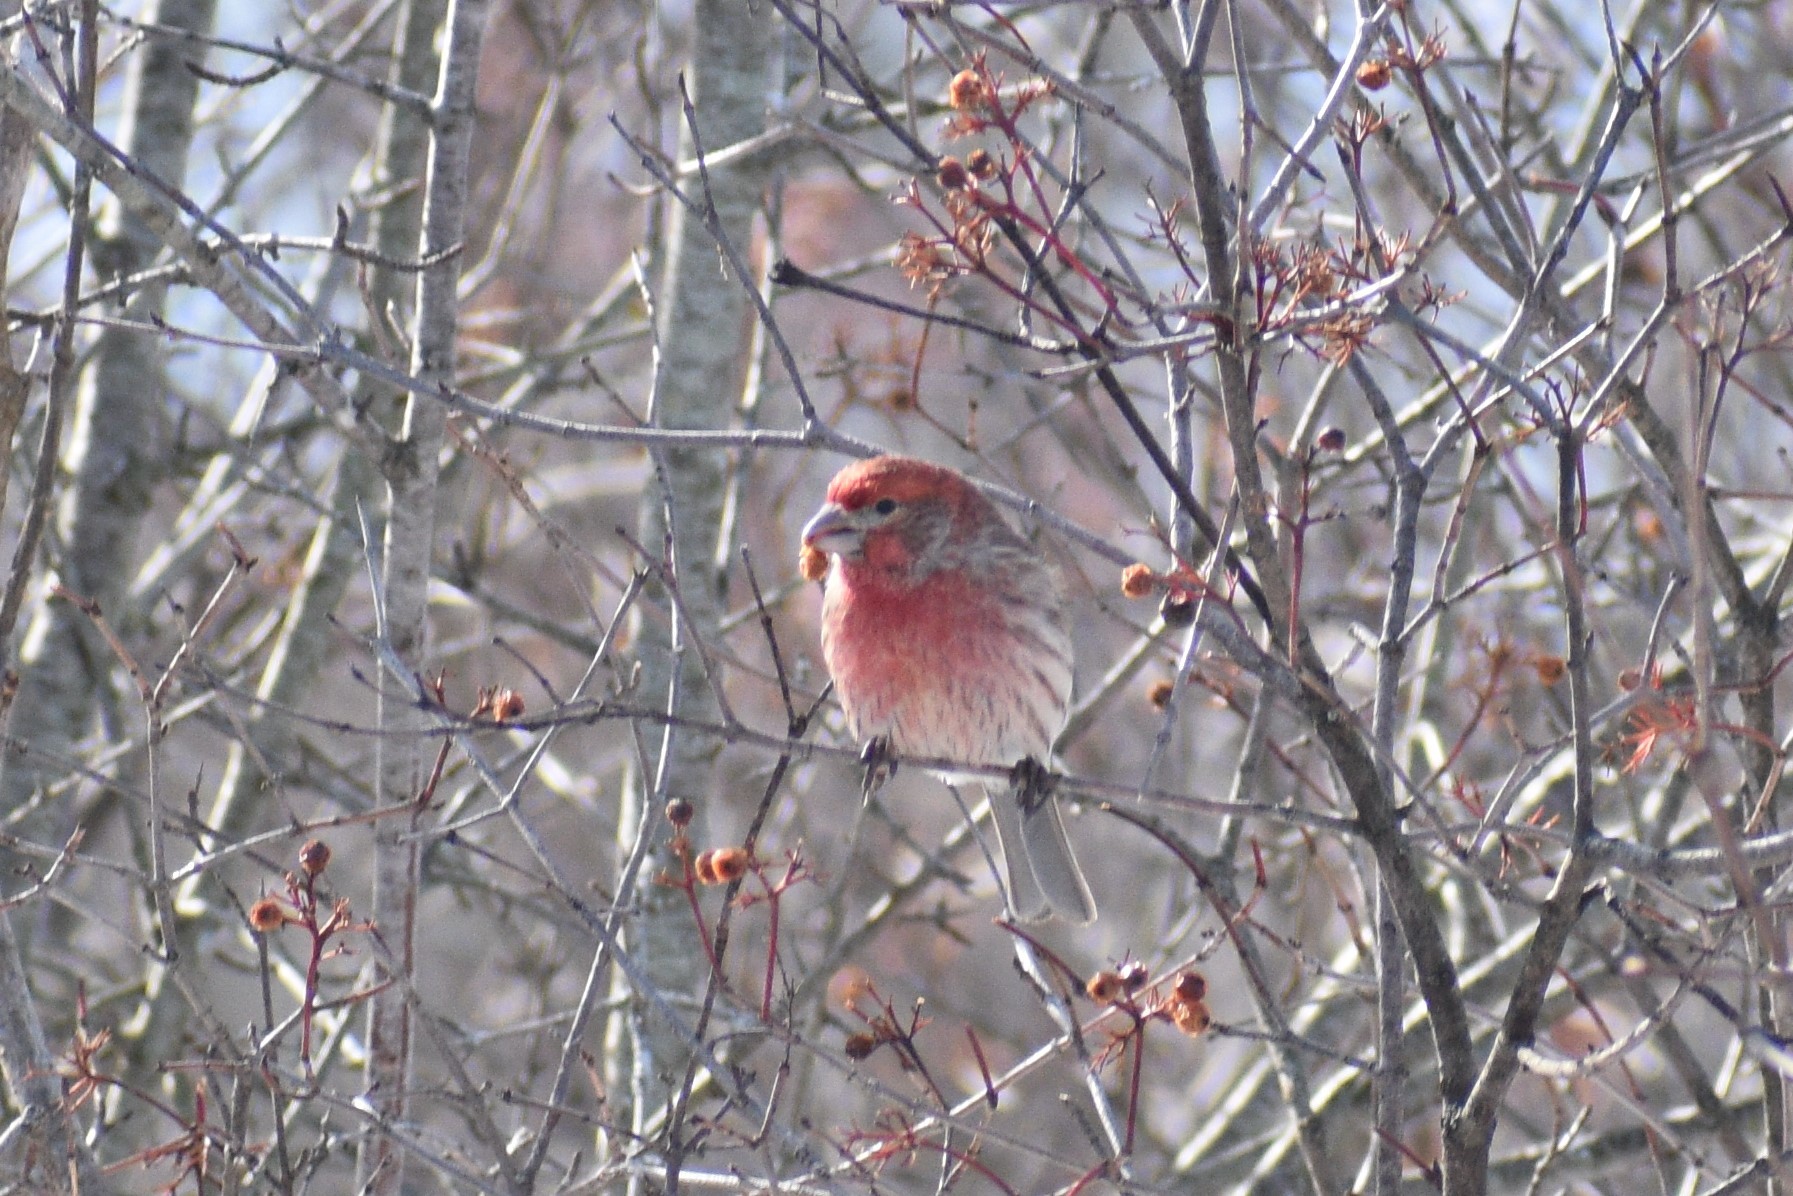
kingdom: Animalia
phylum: Chordata
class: Aves
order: Passeriformes
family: Fringillidae
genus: Haemorhous
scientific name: Haemorhous mexicanus
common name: House finch
